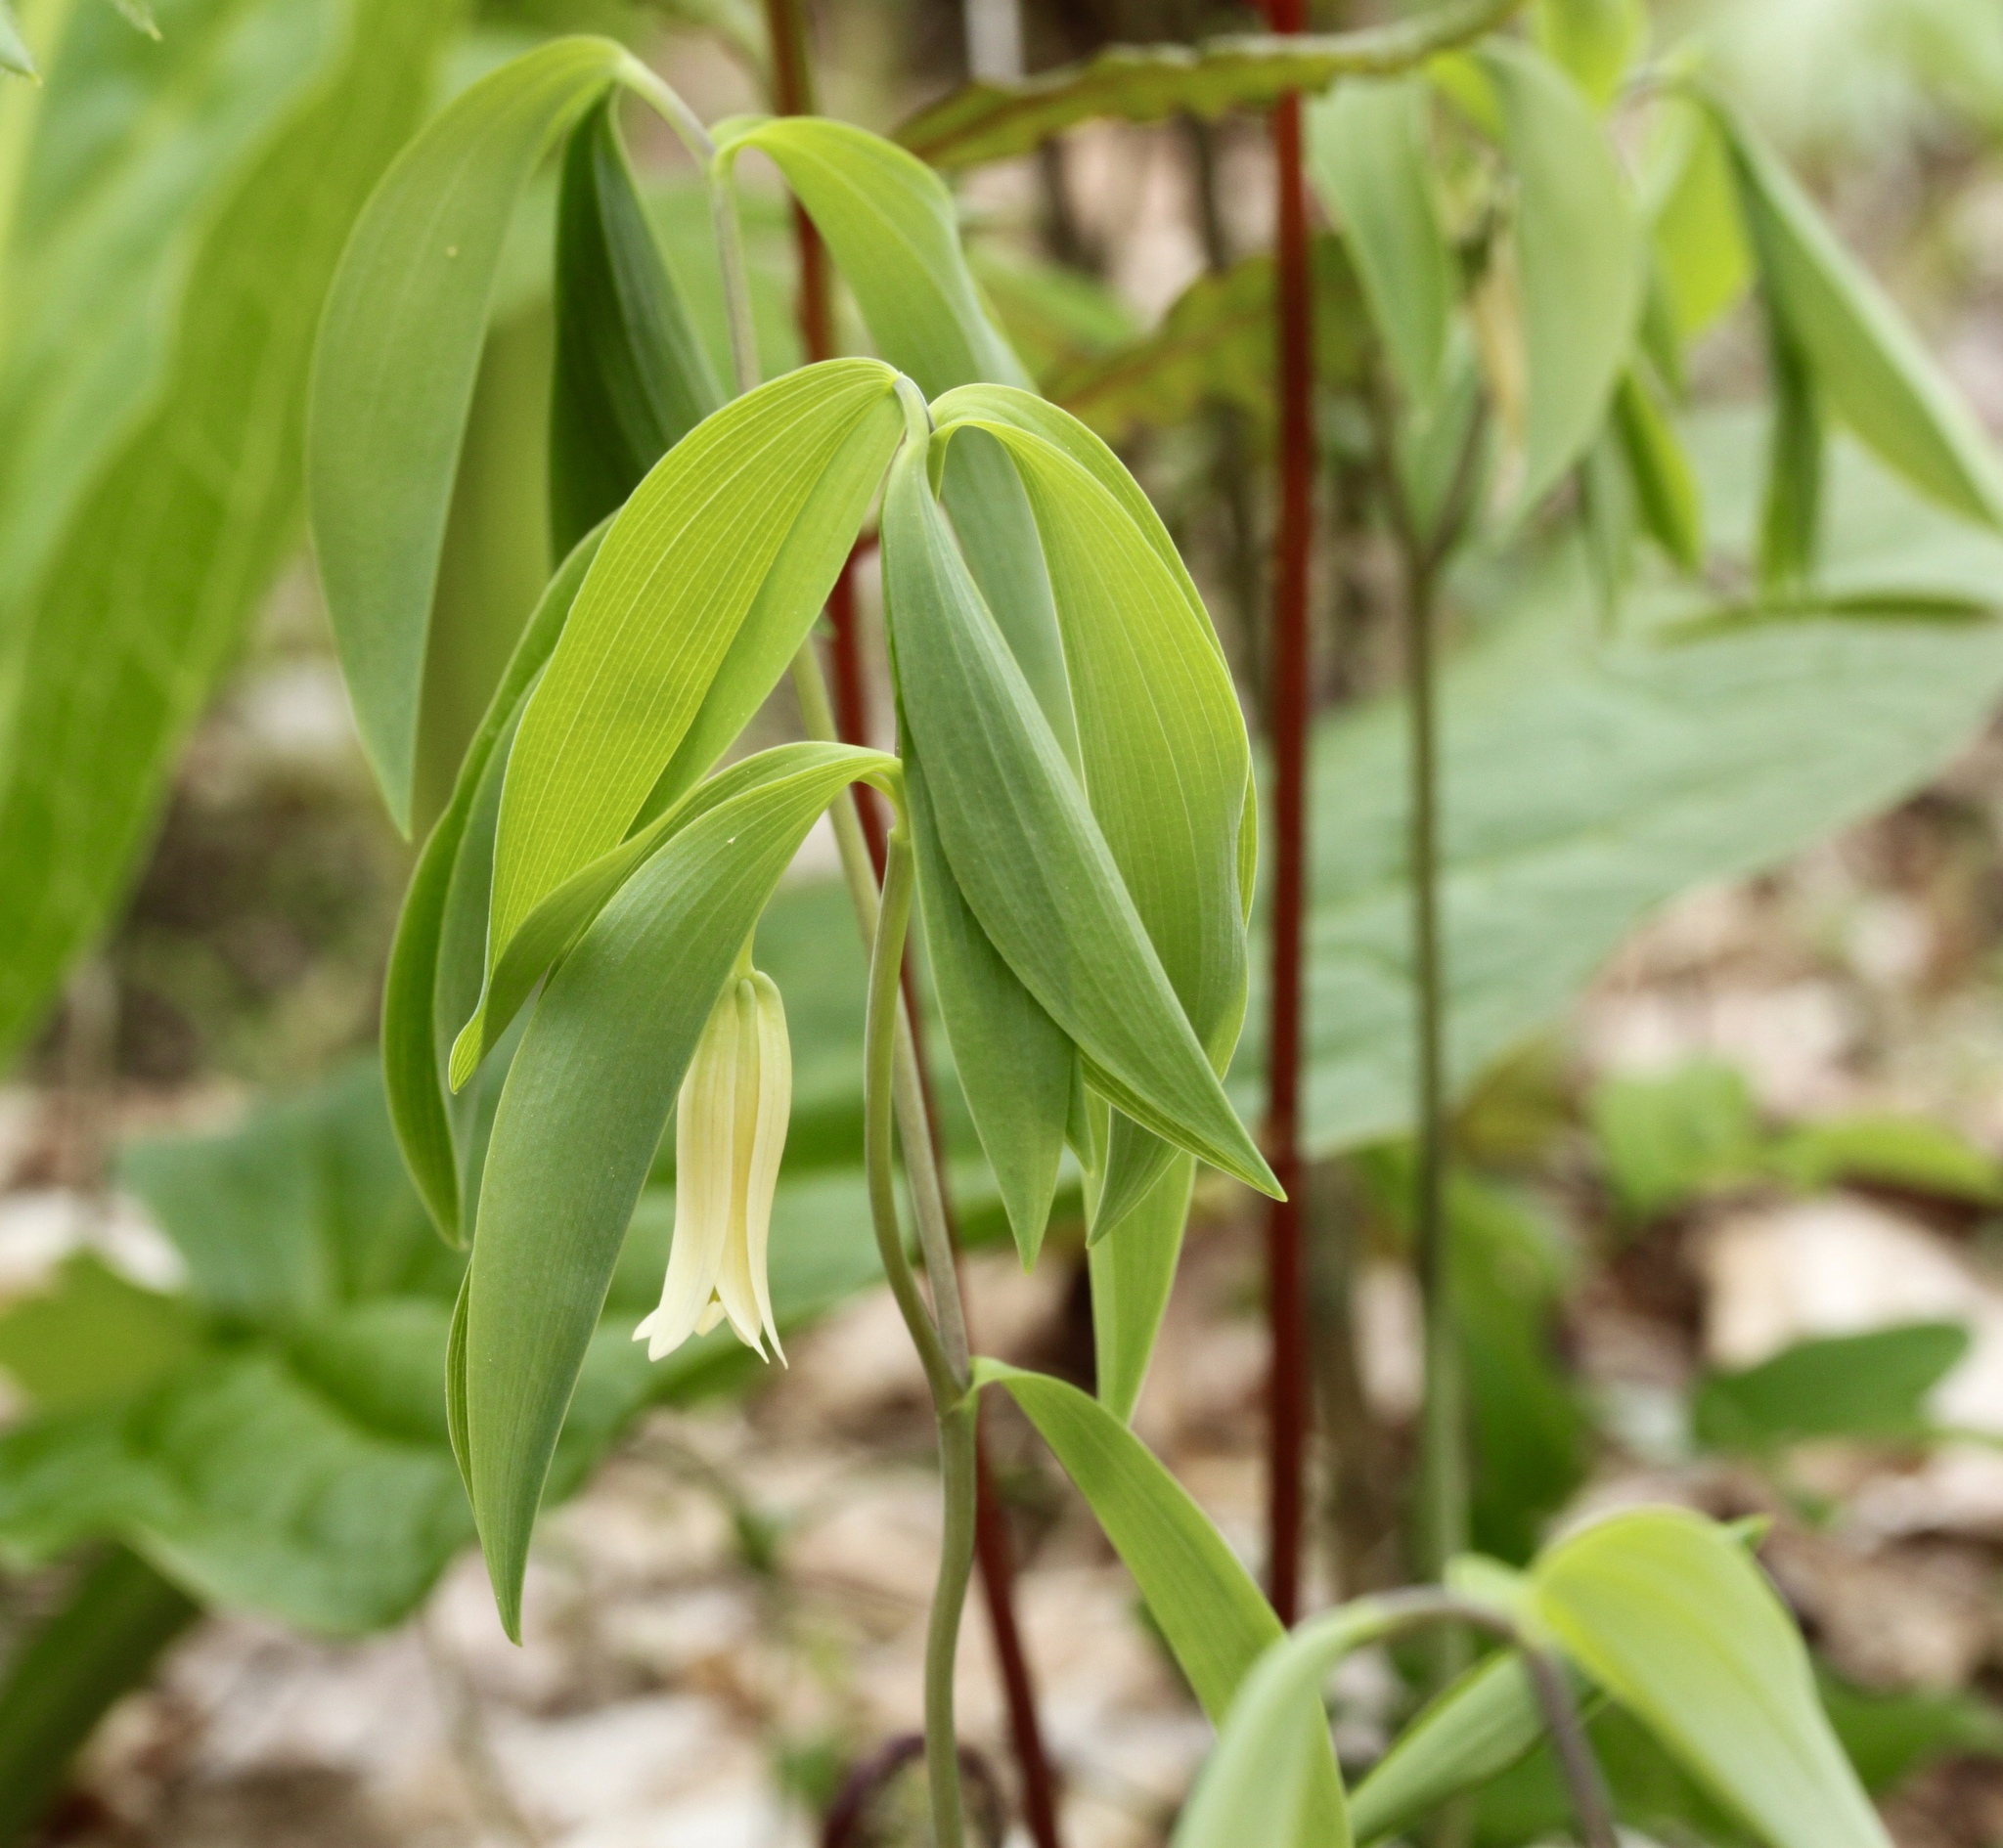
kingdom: Plantae
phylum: Tracheophyta
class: Liliopsida
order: Liliales
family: Colchicaceae
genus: Uvularia
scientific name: Uvularia sessilifolia
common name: Straw-lily
